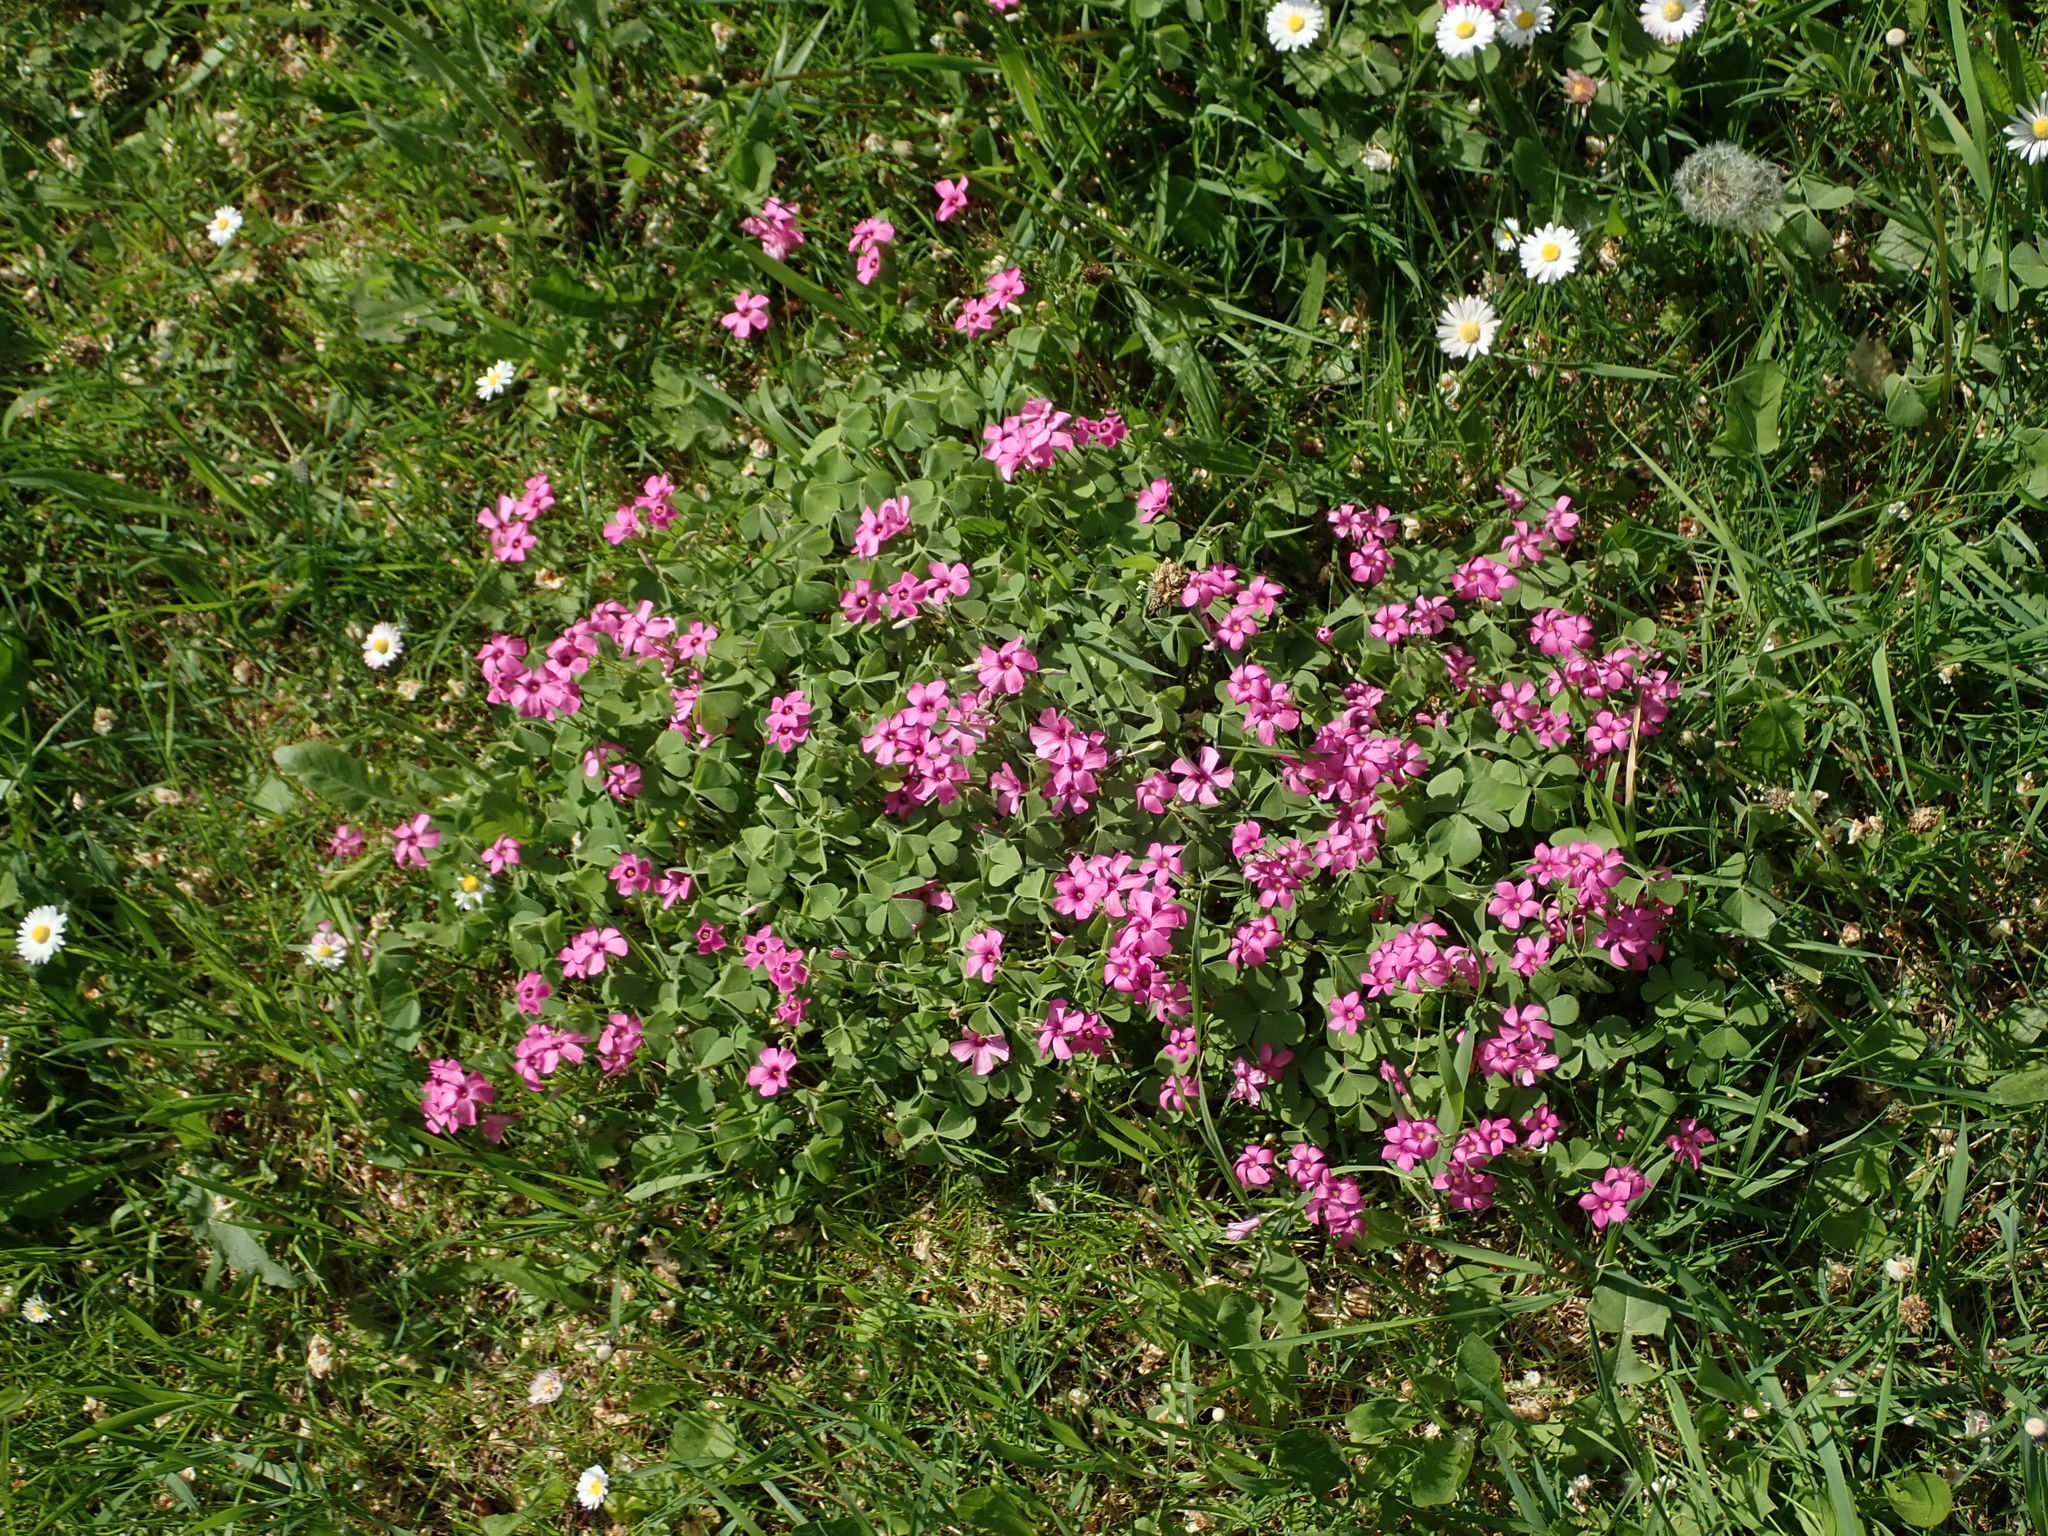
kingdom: Plantae
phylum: Tracheophyta
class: Magnoliopsida
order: Oxalidales
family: Oxalidaceae
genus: Oxalis
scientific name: Oxalis articulata
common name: Pink-sorrel
